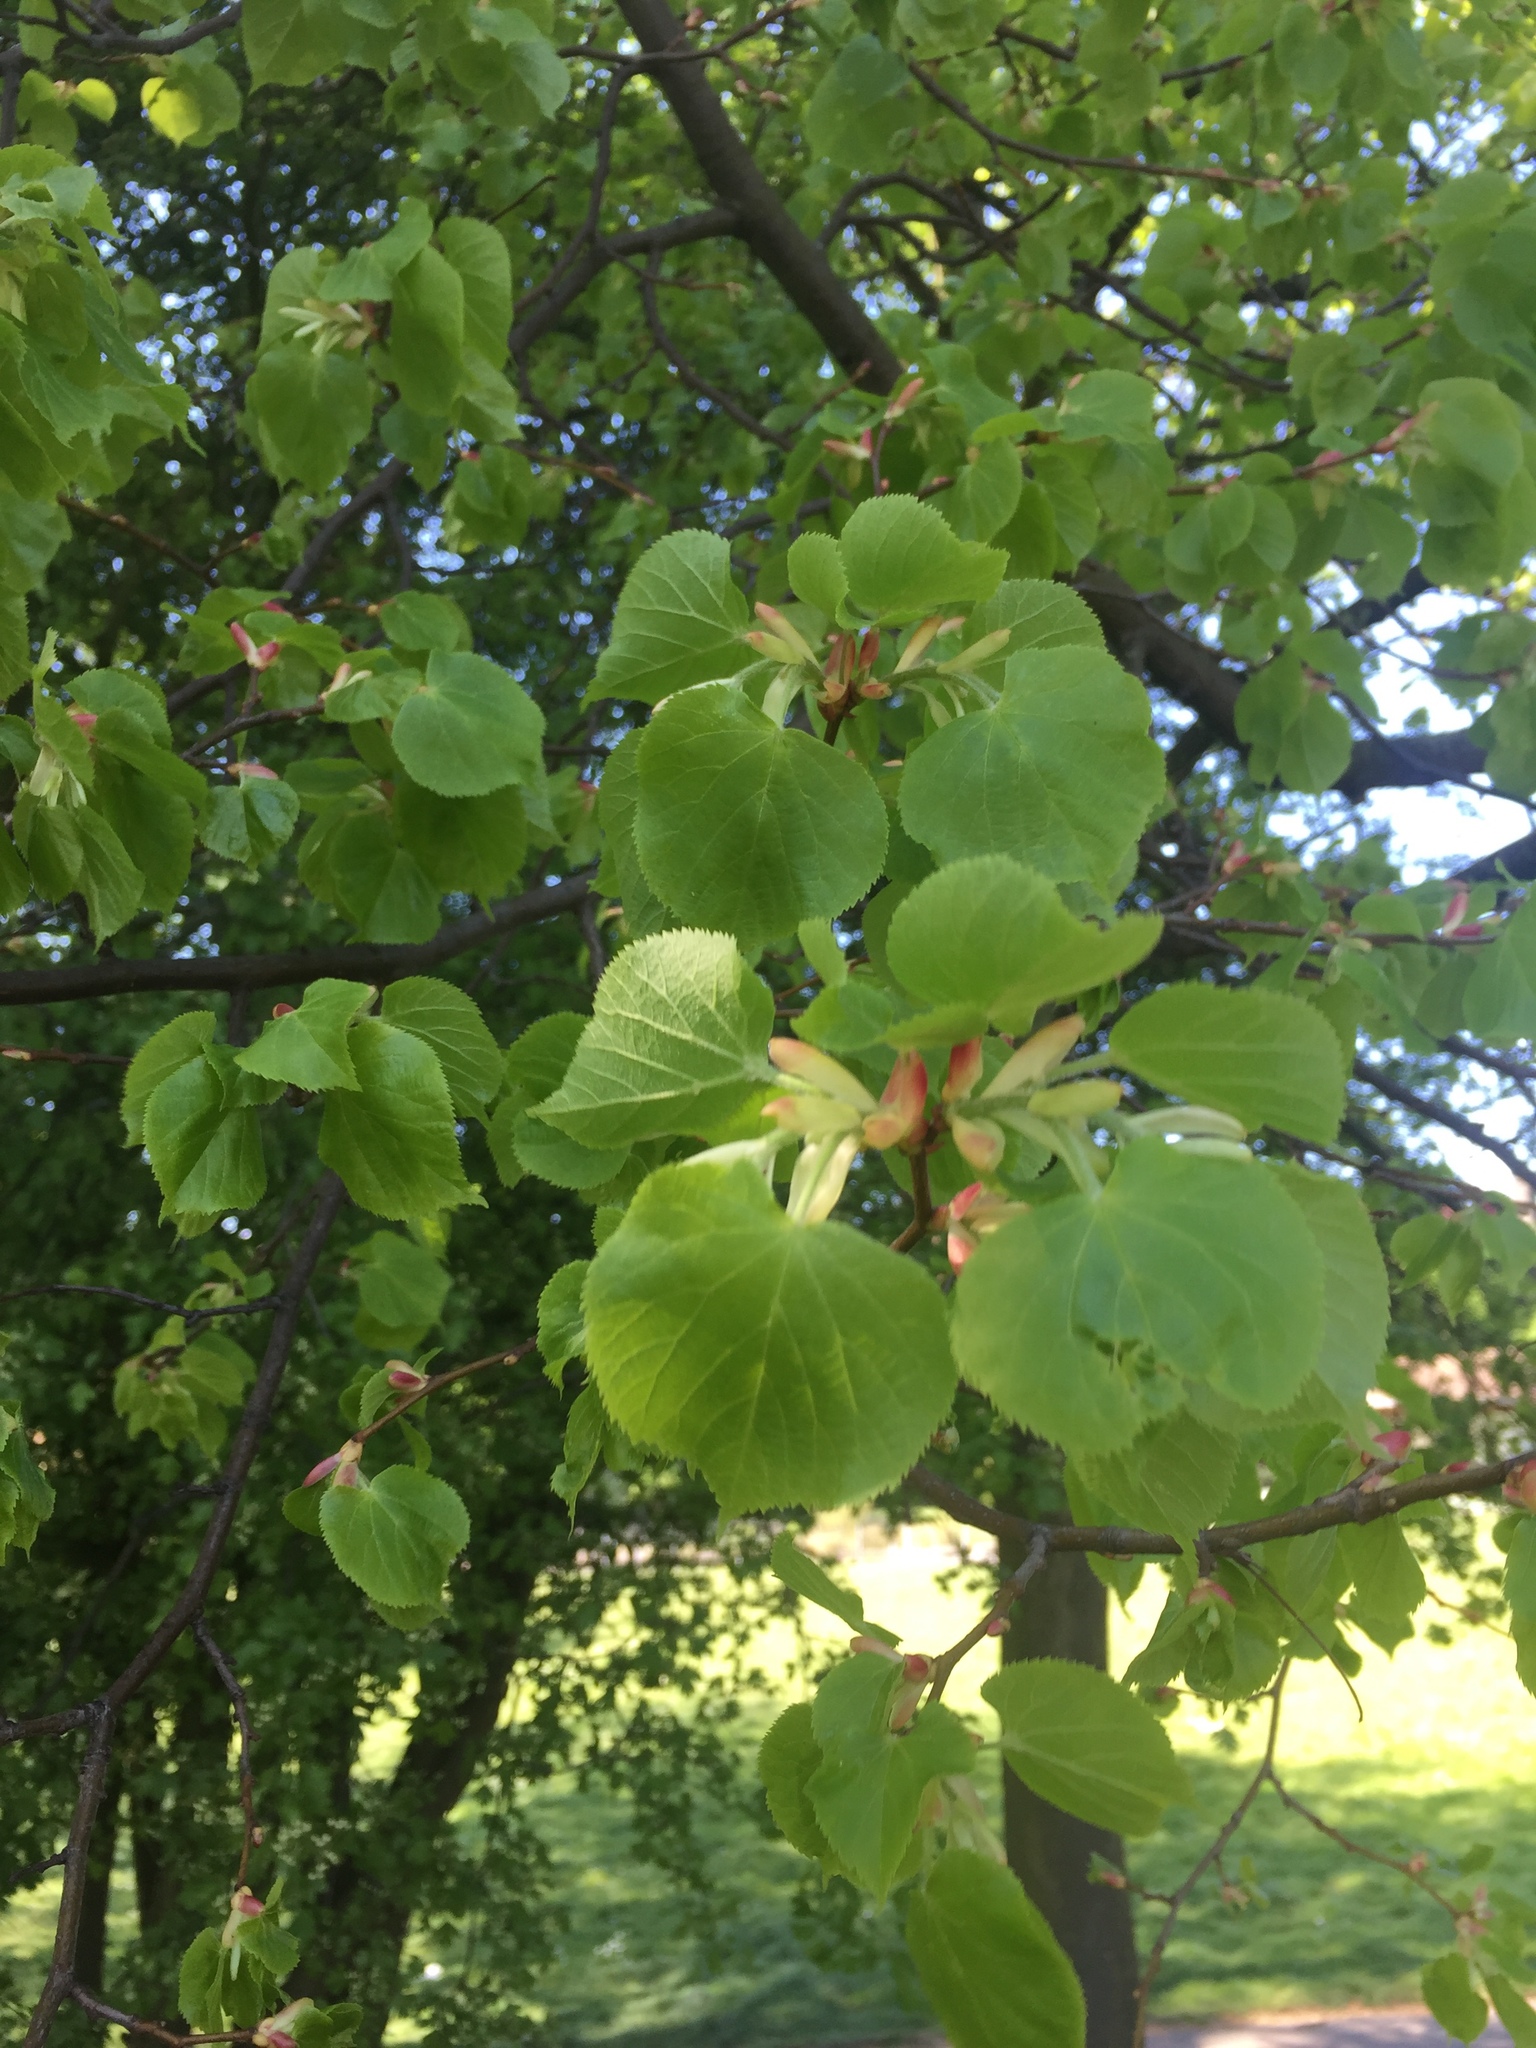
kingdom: Plantae
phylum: Tracheophyta
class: Magnoliopsida
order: Malvales
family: Malvaceae
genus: Tilia
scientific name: Tilia cordata
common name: Small-leaved lime
